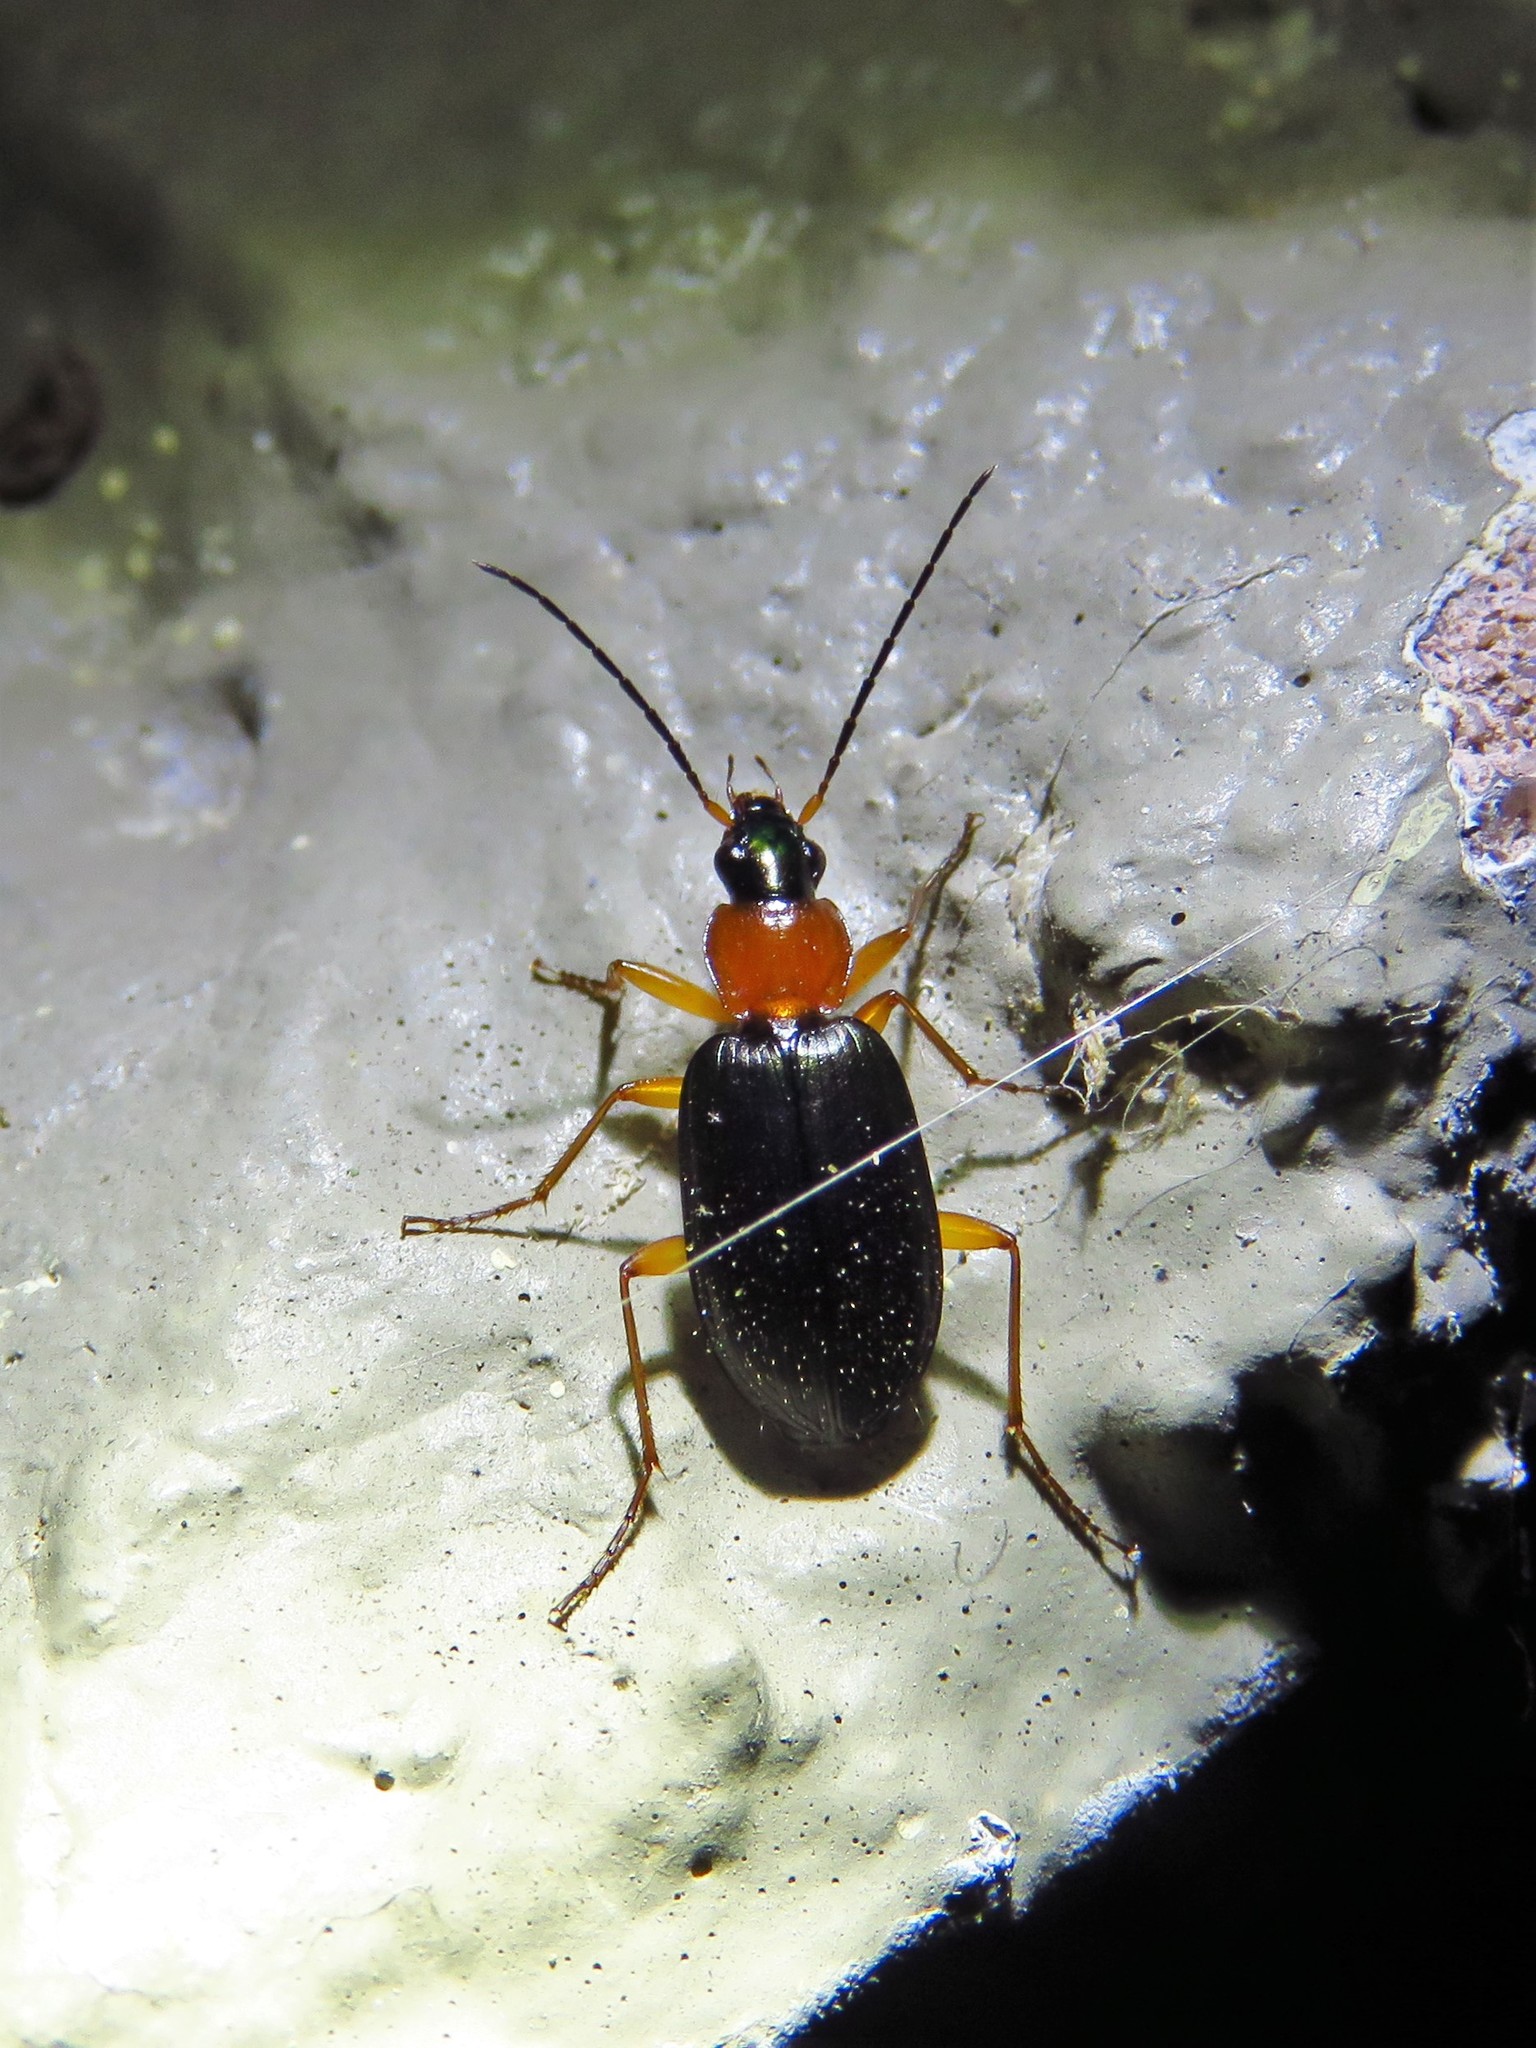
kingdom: Animalia
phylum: Arthropoda
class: Insecta
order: Coleoptera
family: Carabidae
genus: Agonum
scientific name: Agonum decorum
